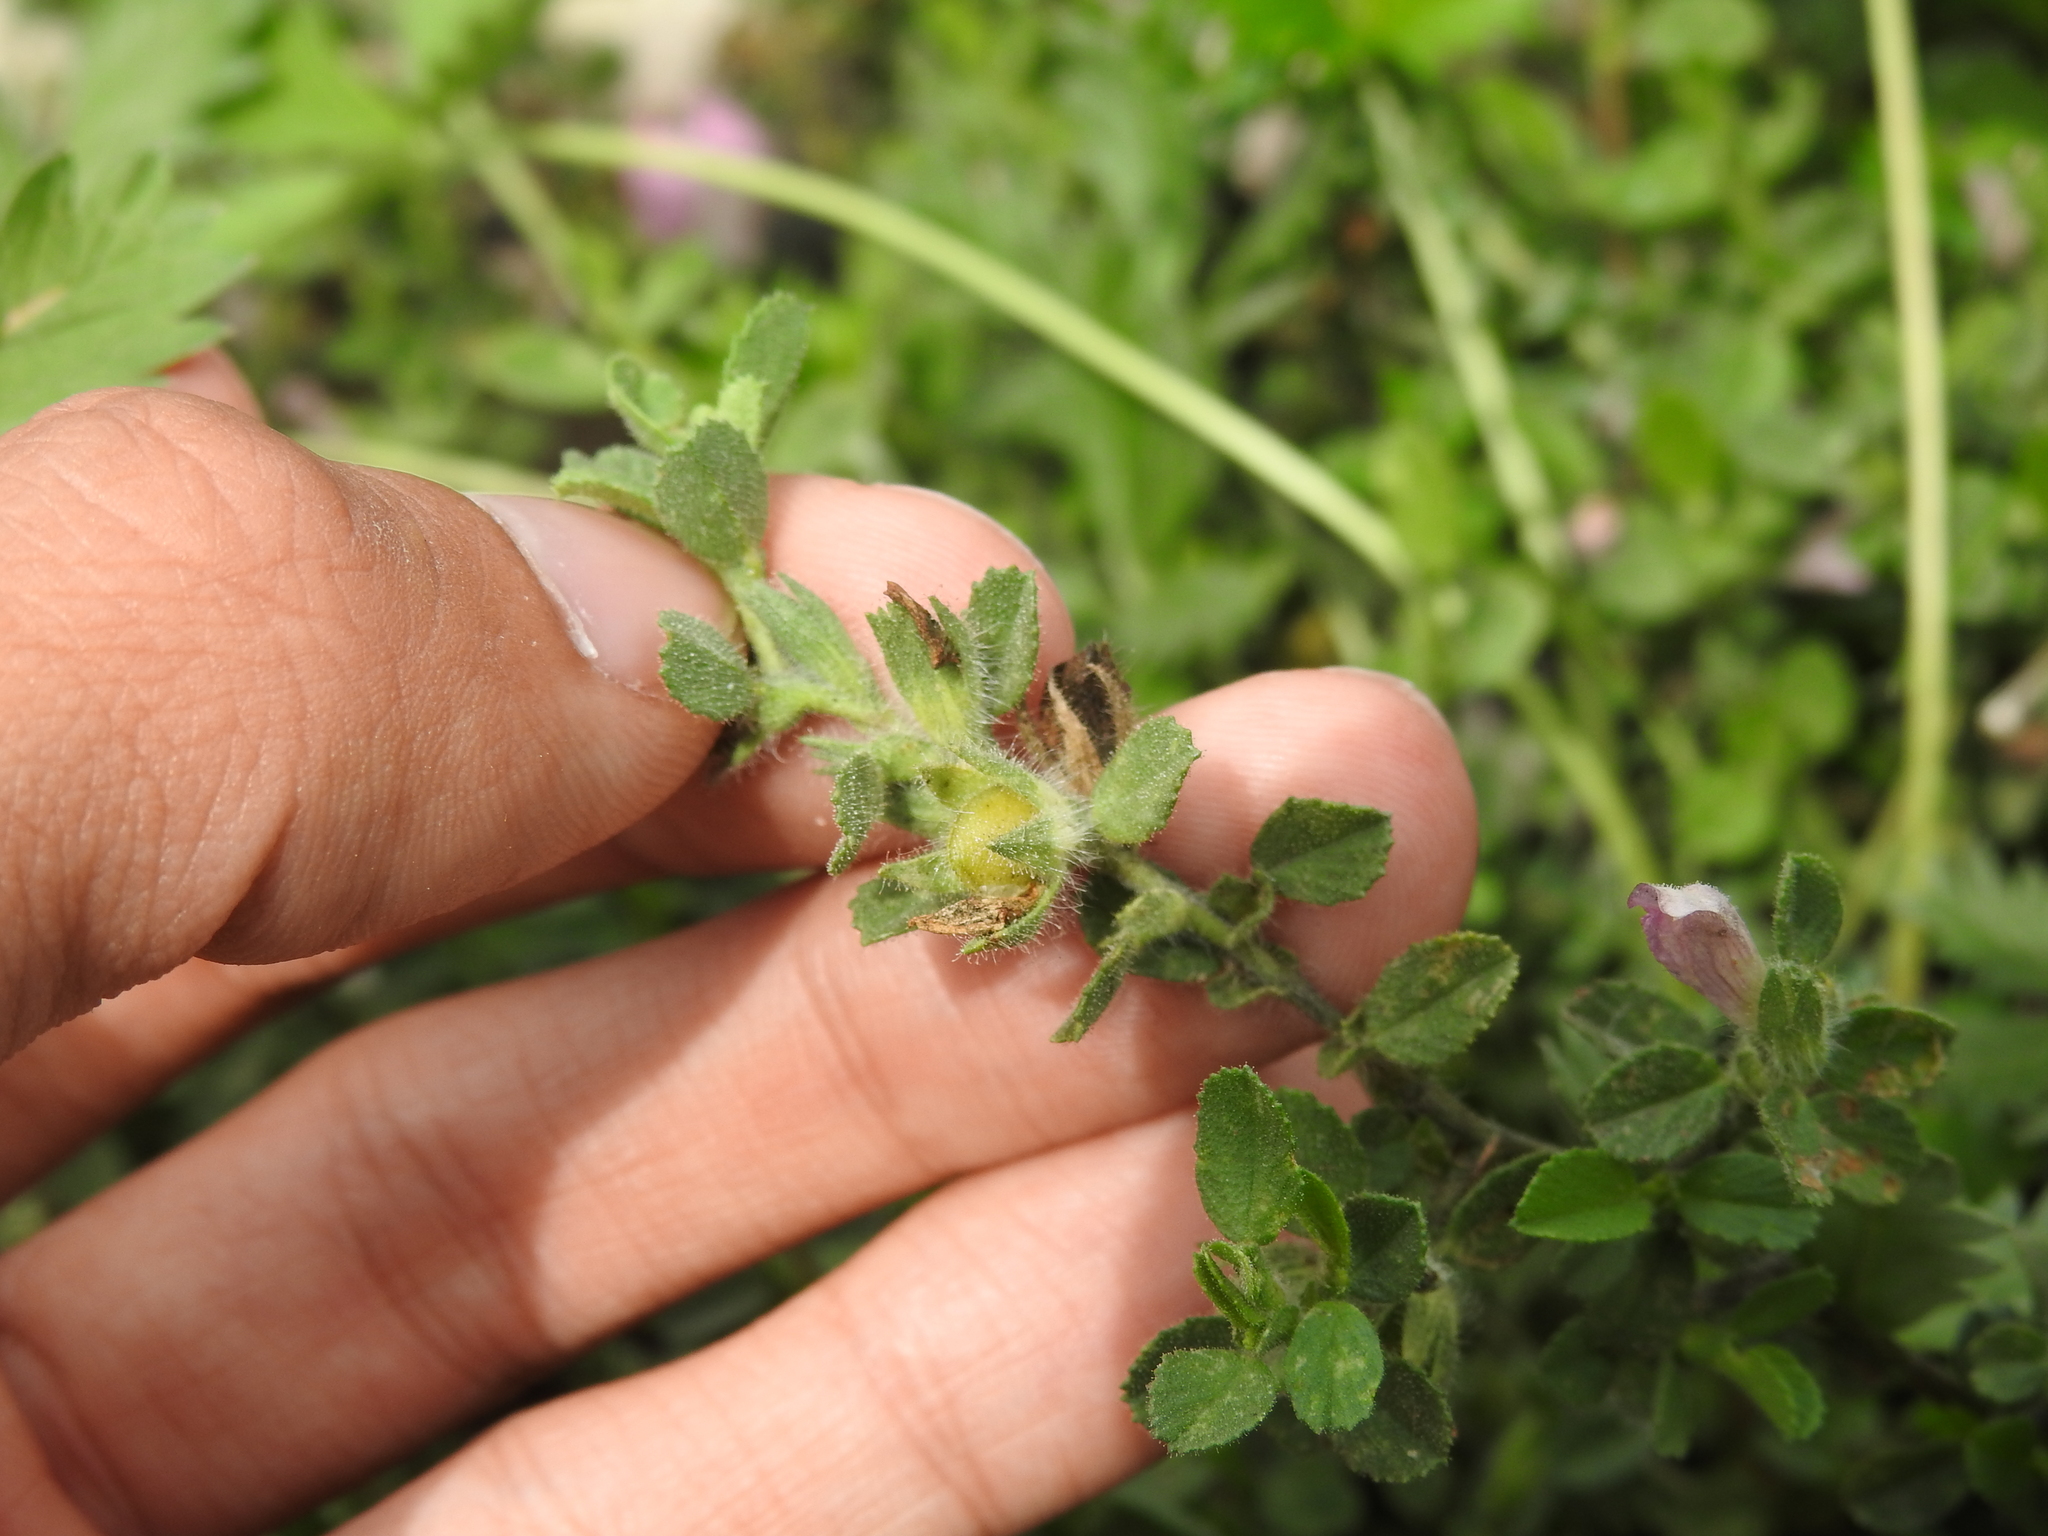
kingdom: Animalia
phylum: Arthropoda
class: Insecta
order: Diptera
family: Cecidomyiidae
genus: Asphondylia
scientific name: Asphondylia ononidis
